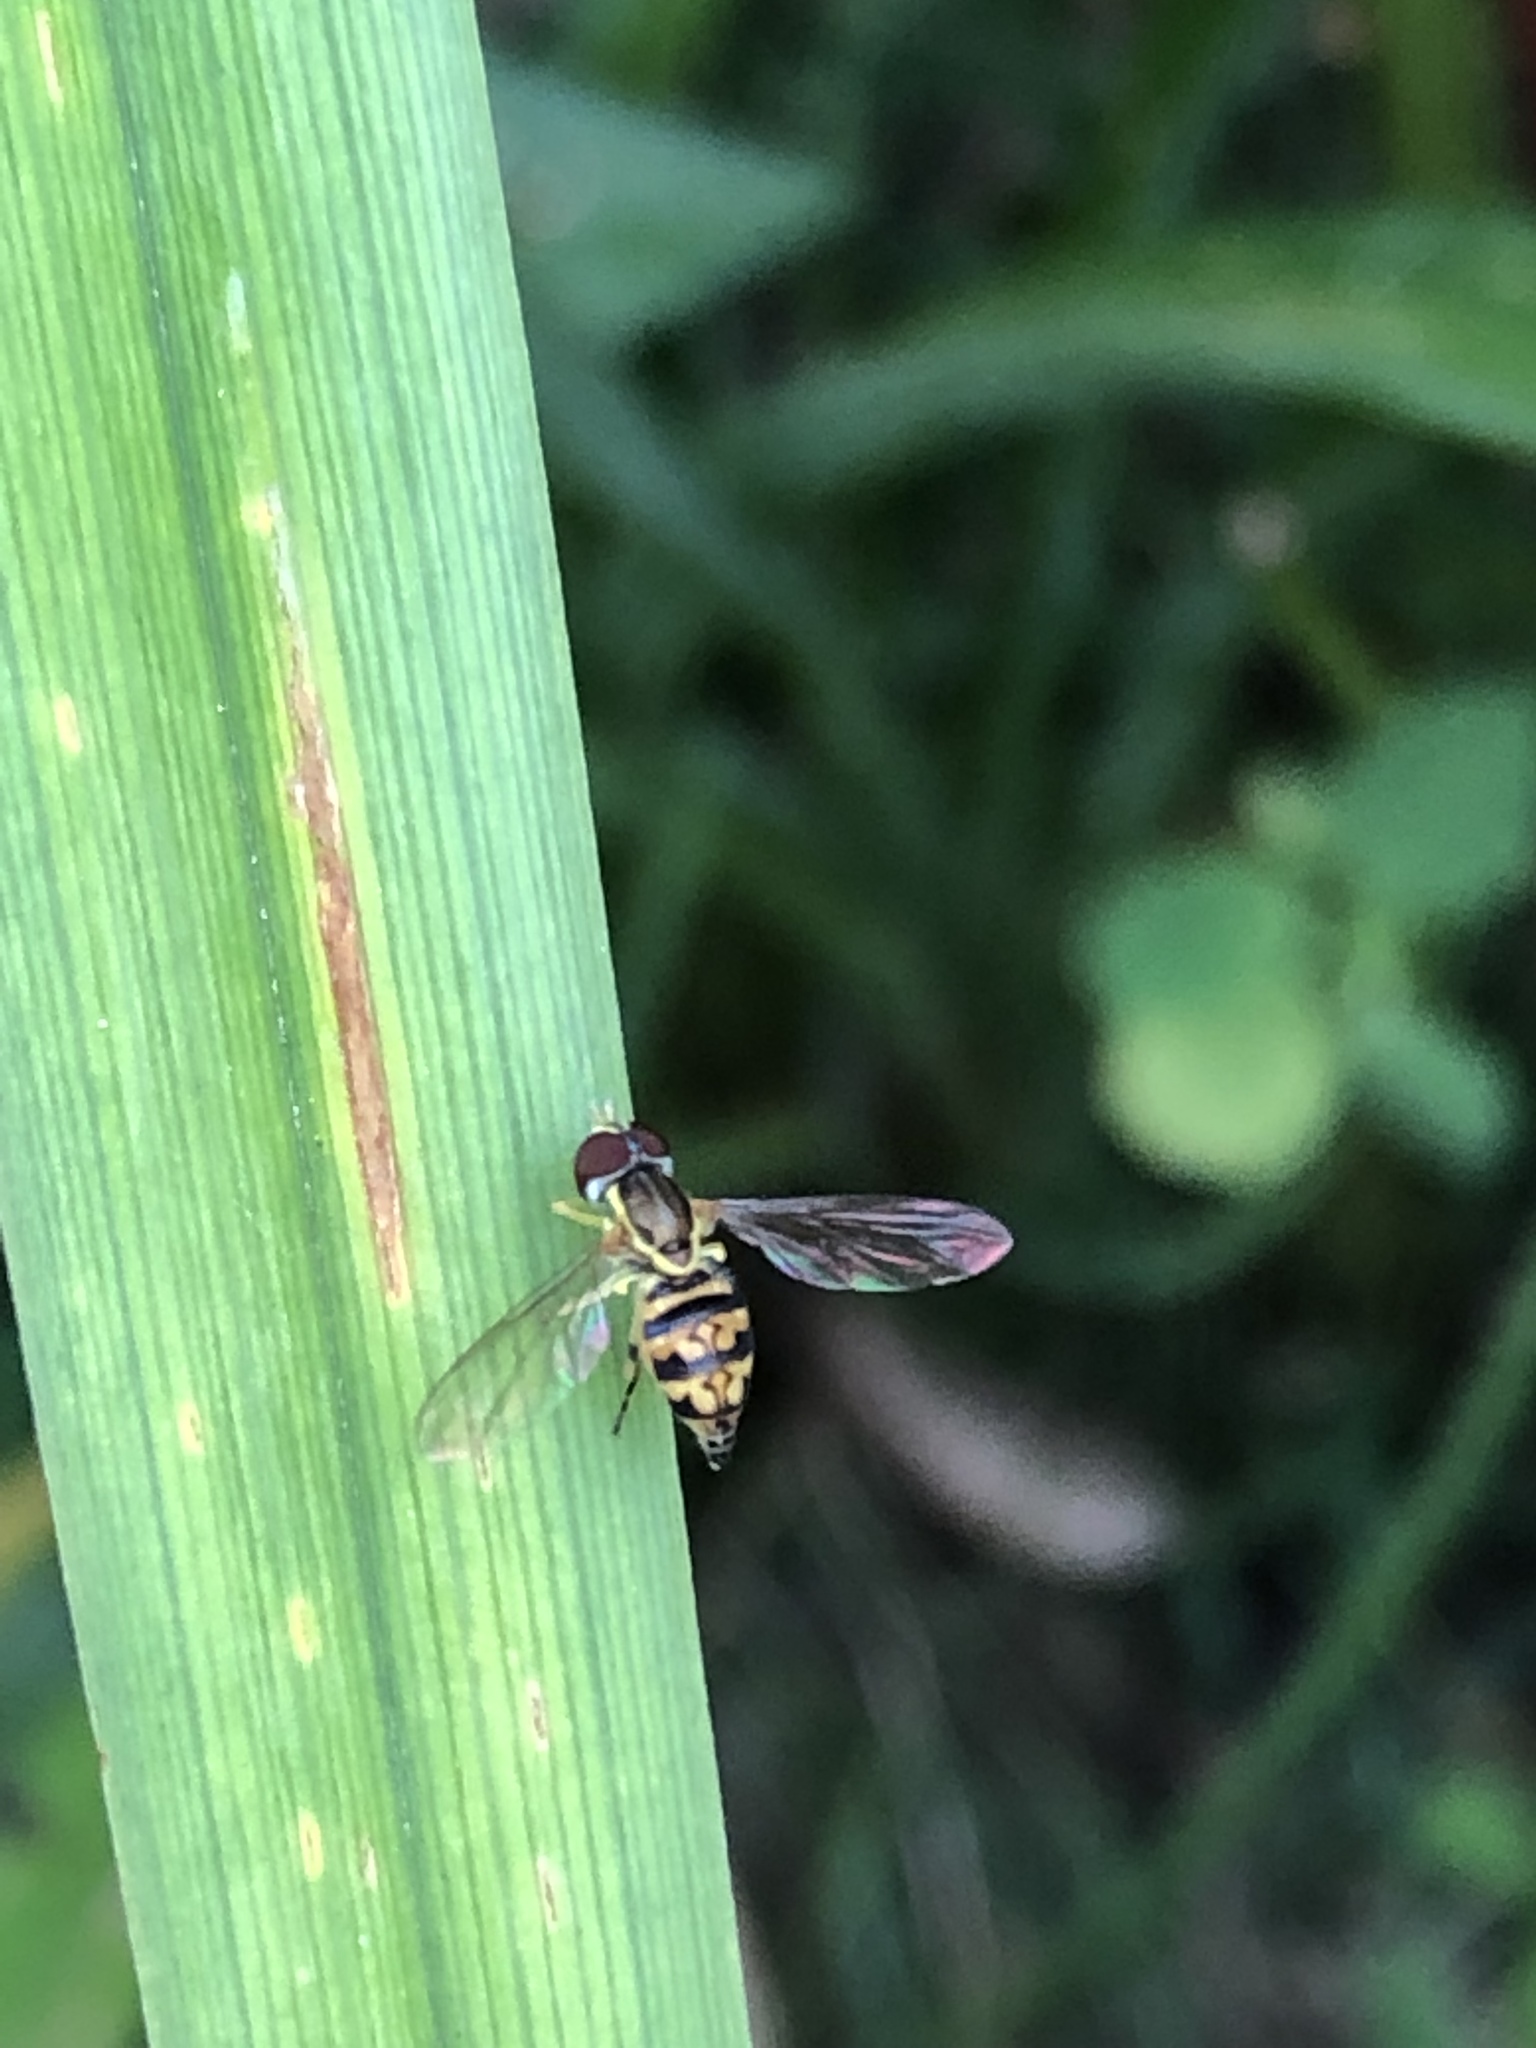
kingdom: Animalia
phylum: Arthropoda
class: Insecta
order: Diptera
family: Syrphidae
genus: Toxomerus
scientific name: Toxomerus geminatus
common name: Eastern calligrapher
